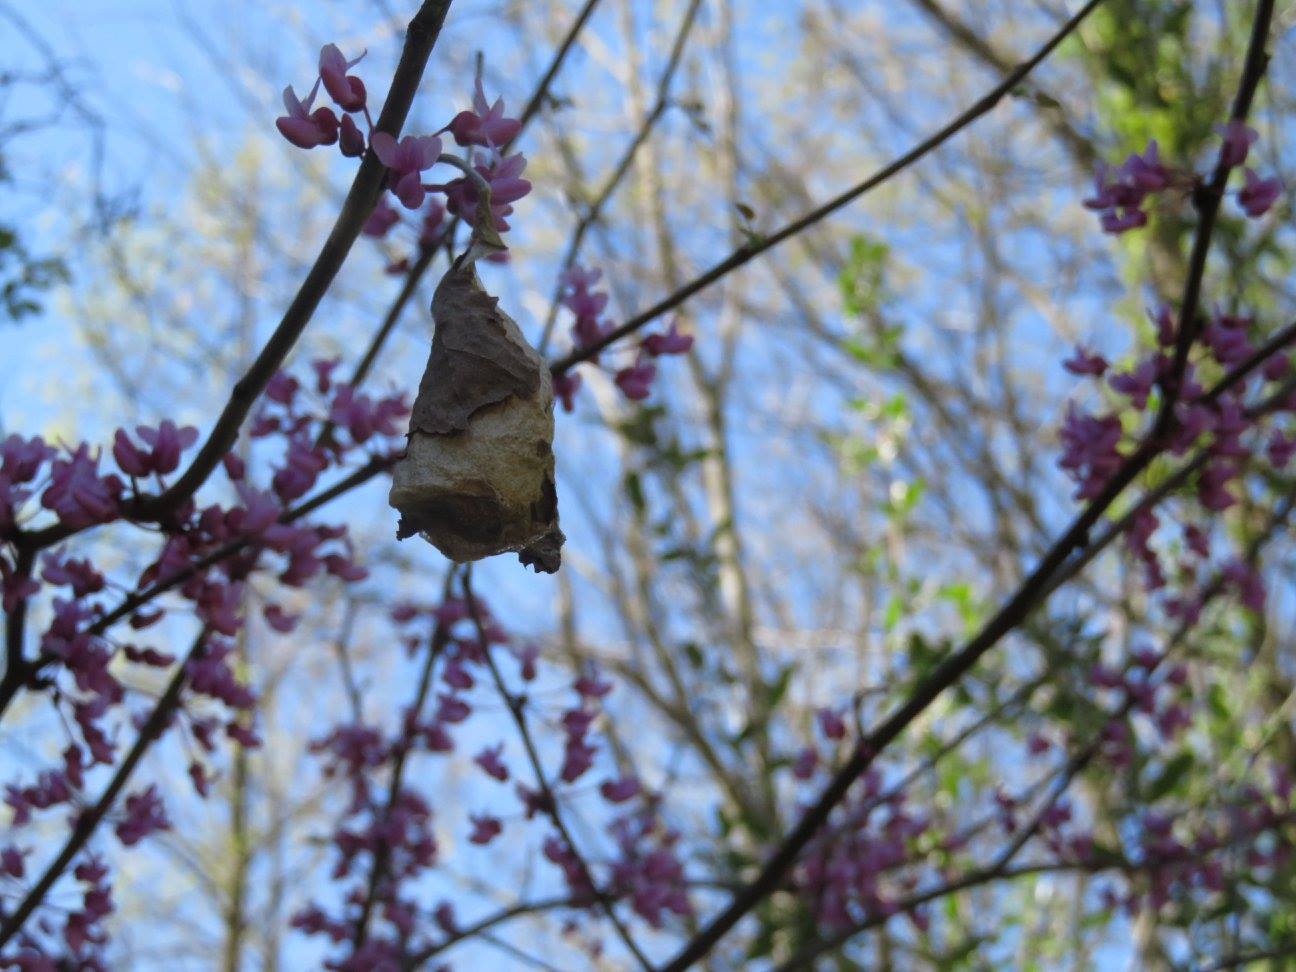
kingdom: Animalia
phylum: Arthropoda
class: Insecta
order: Lepidoptera
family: Saturniidae
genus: Callosamia
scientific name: Callosamia promethea
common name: Promethea silkmoth
